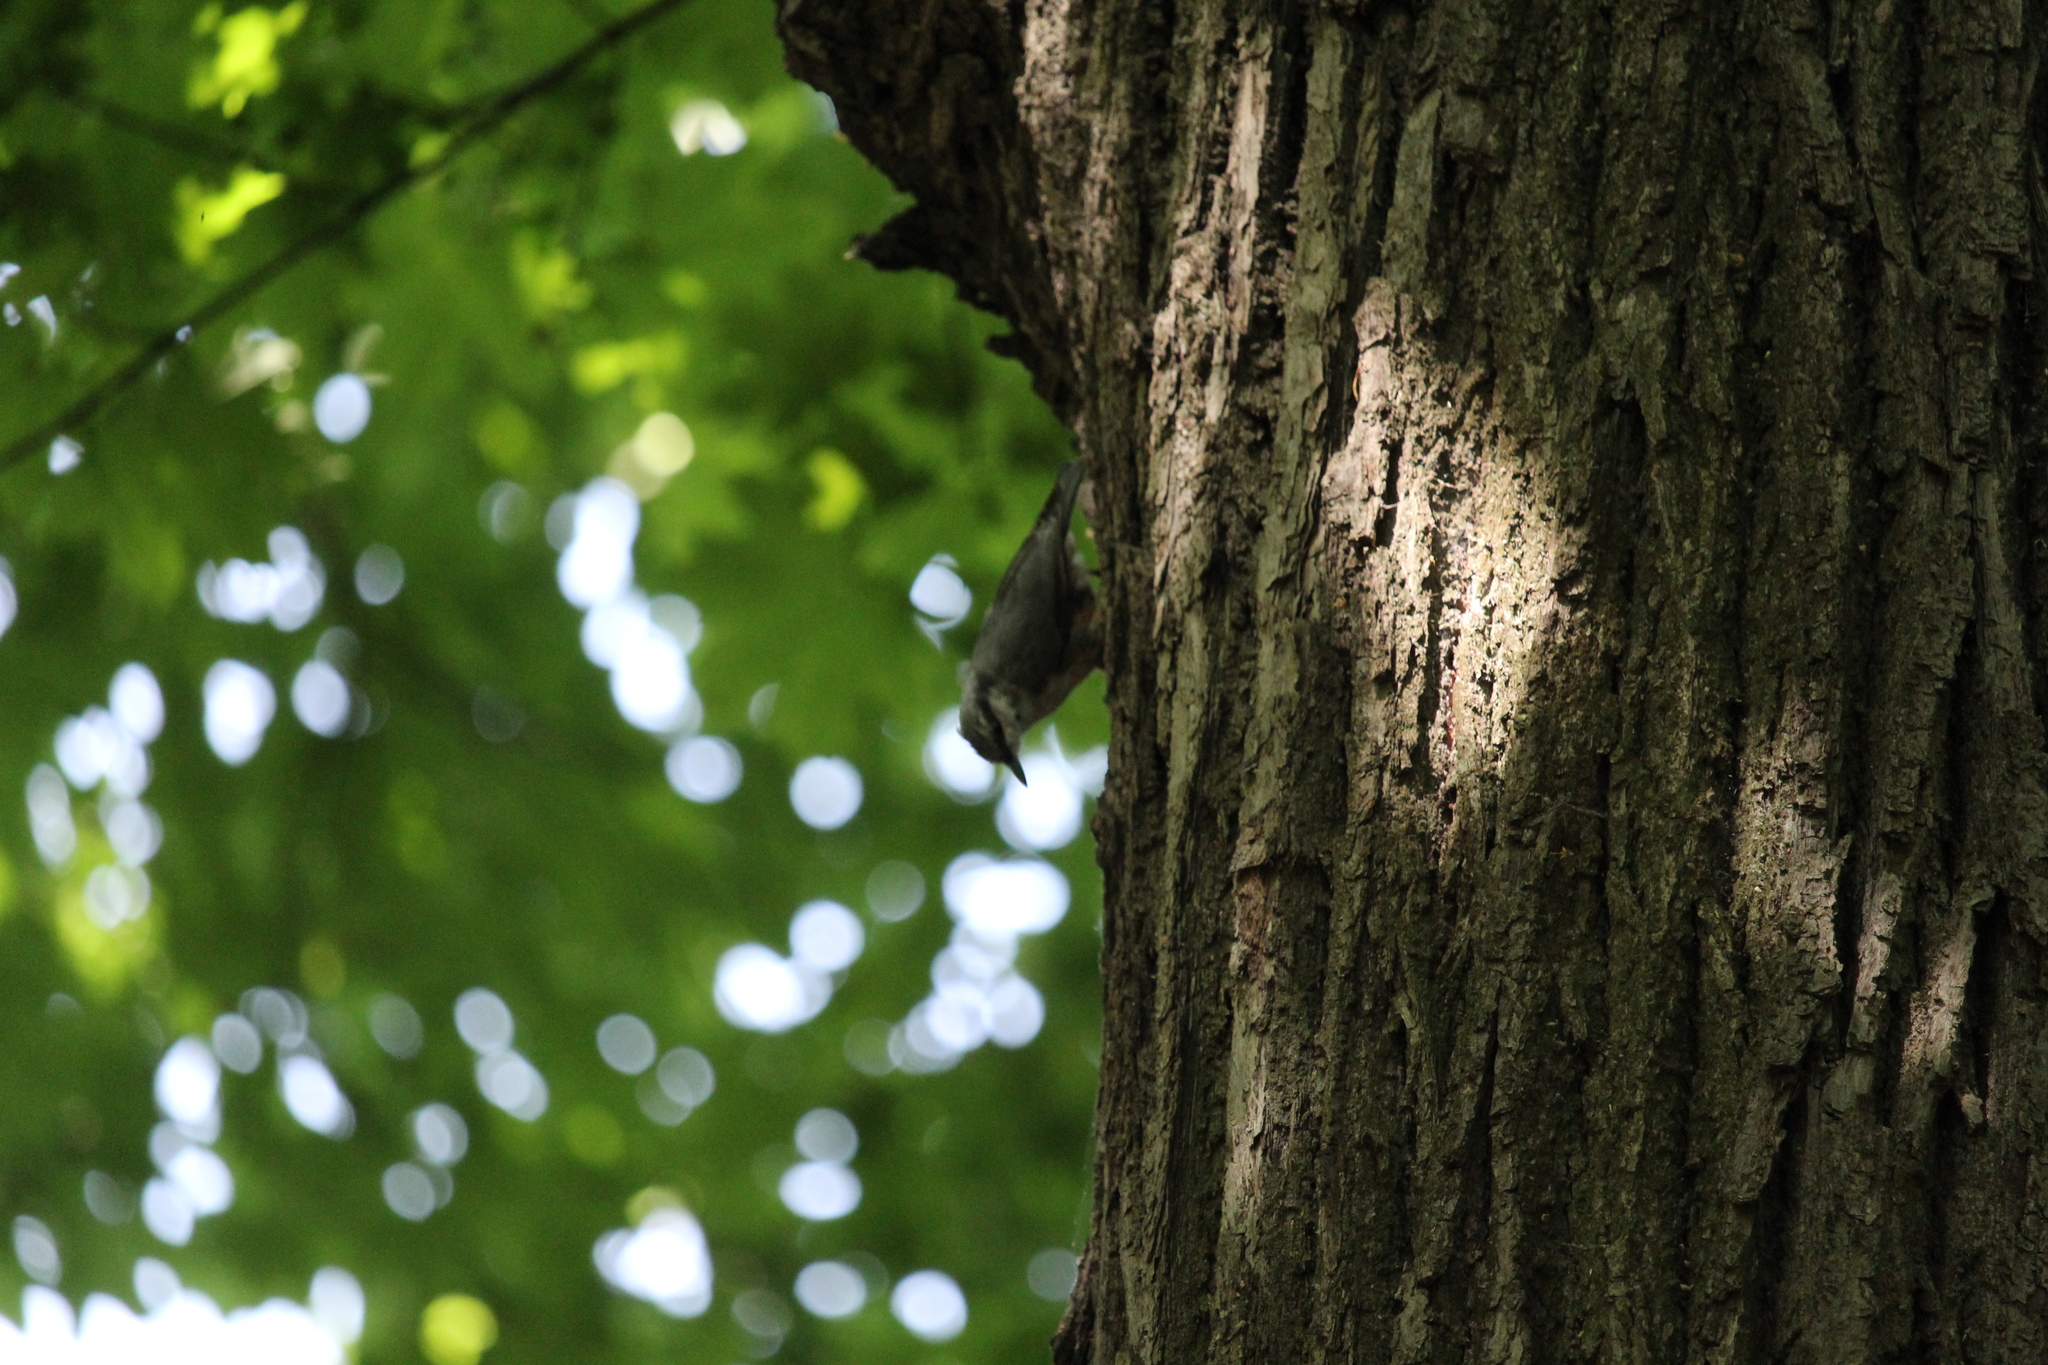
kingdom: Animalia
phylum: Chordata
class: Aves
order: Passeriformes
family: Sittidae
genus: Sitta
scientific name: Sitta europaea
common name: Eurasian nuthatch
